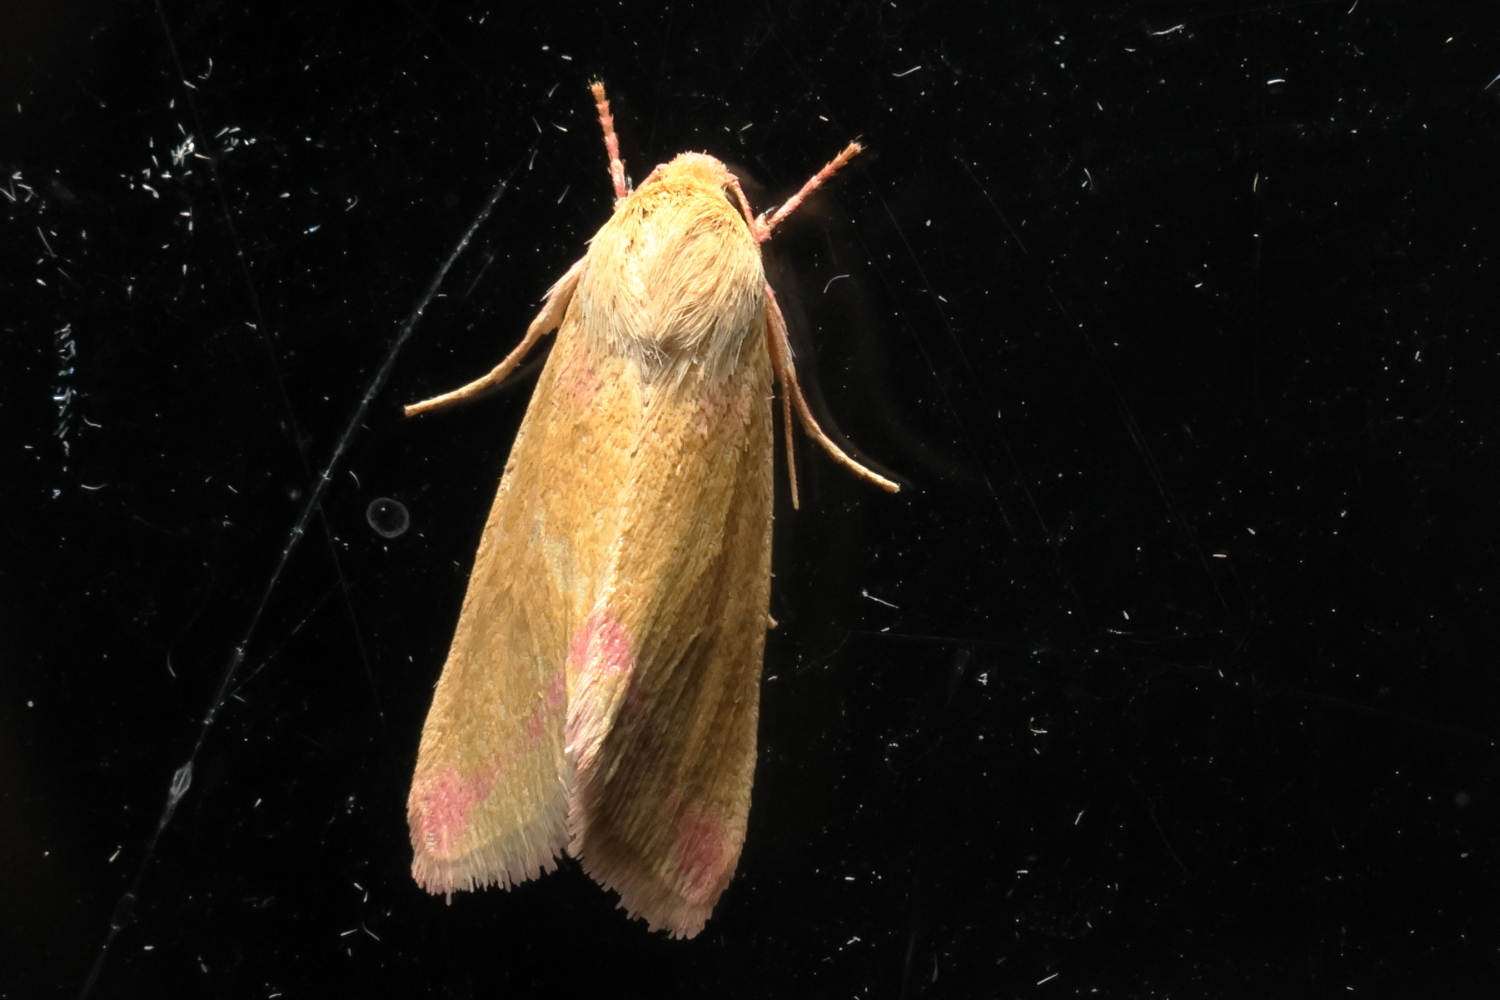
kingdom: Animalia
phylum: Arthropoda
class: Insecta
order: Lepidoptera
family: Noctuidae
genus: Heliocheilus
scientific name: Heliocheilus toralis
